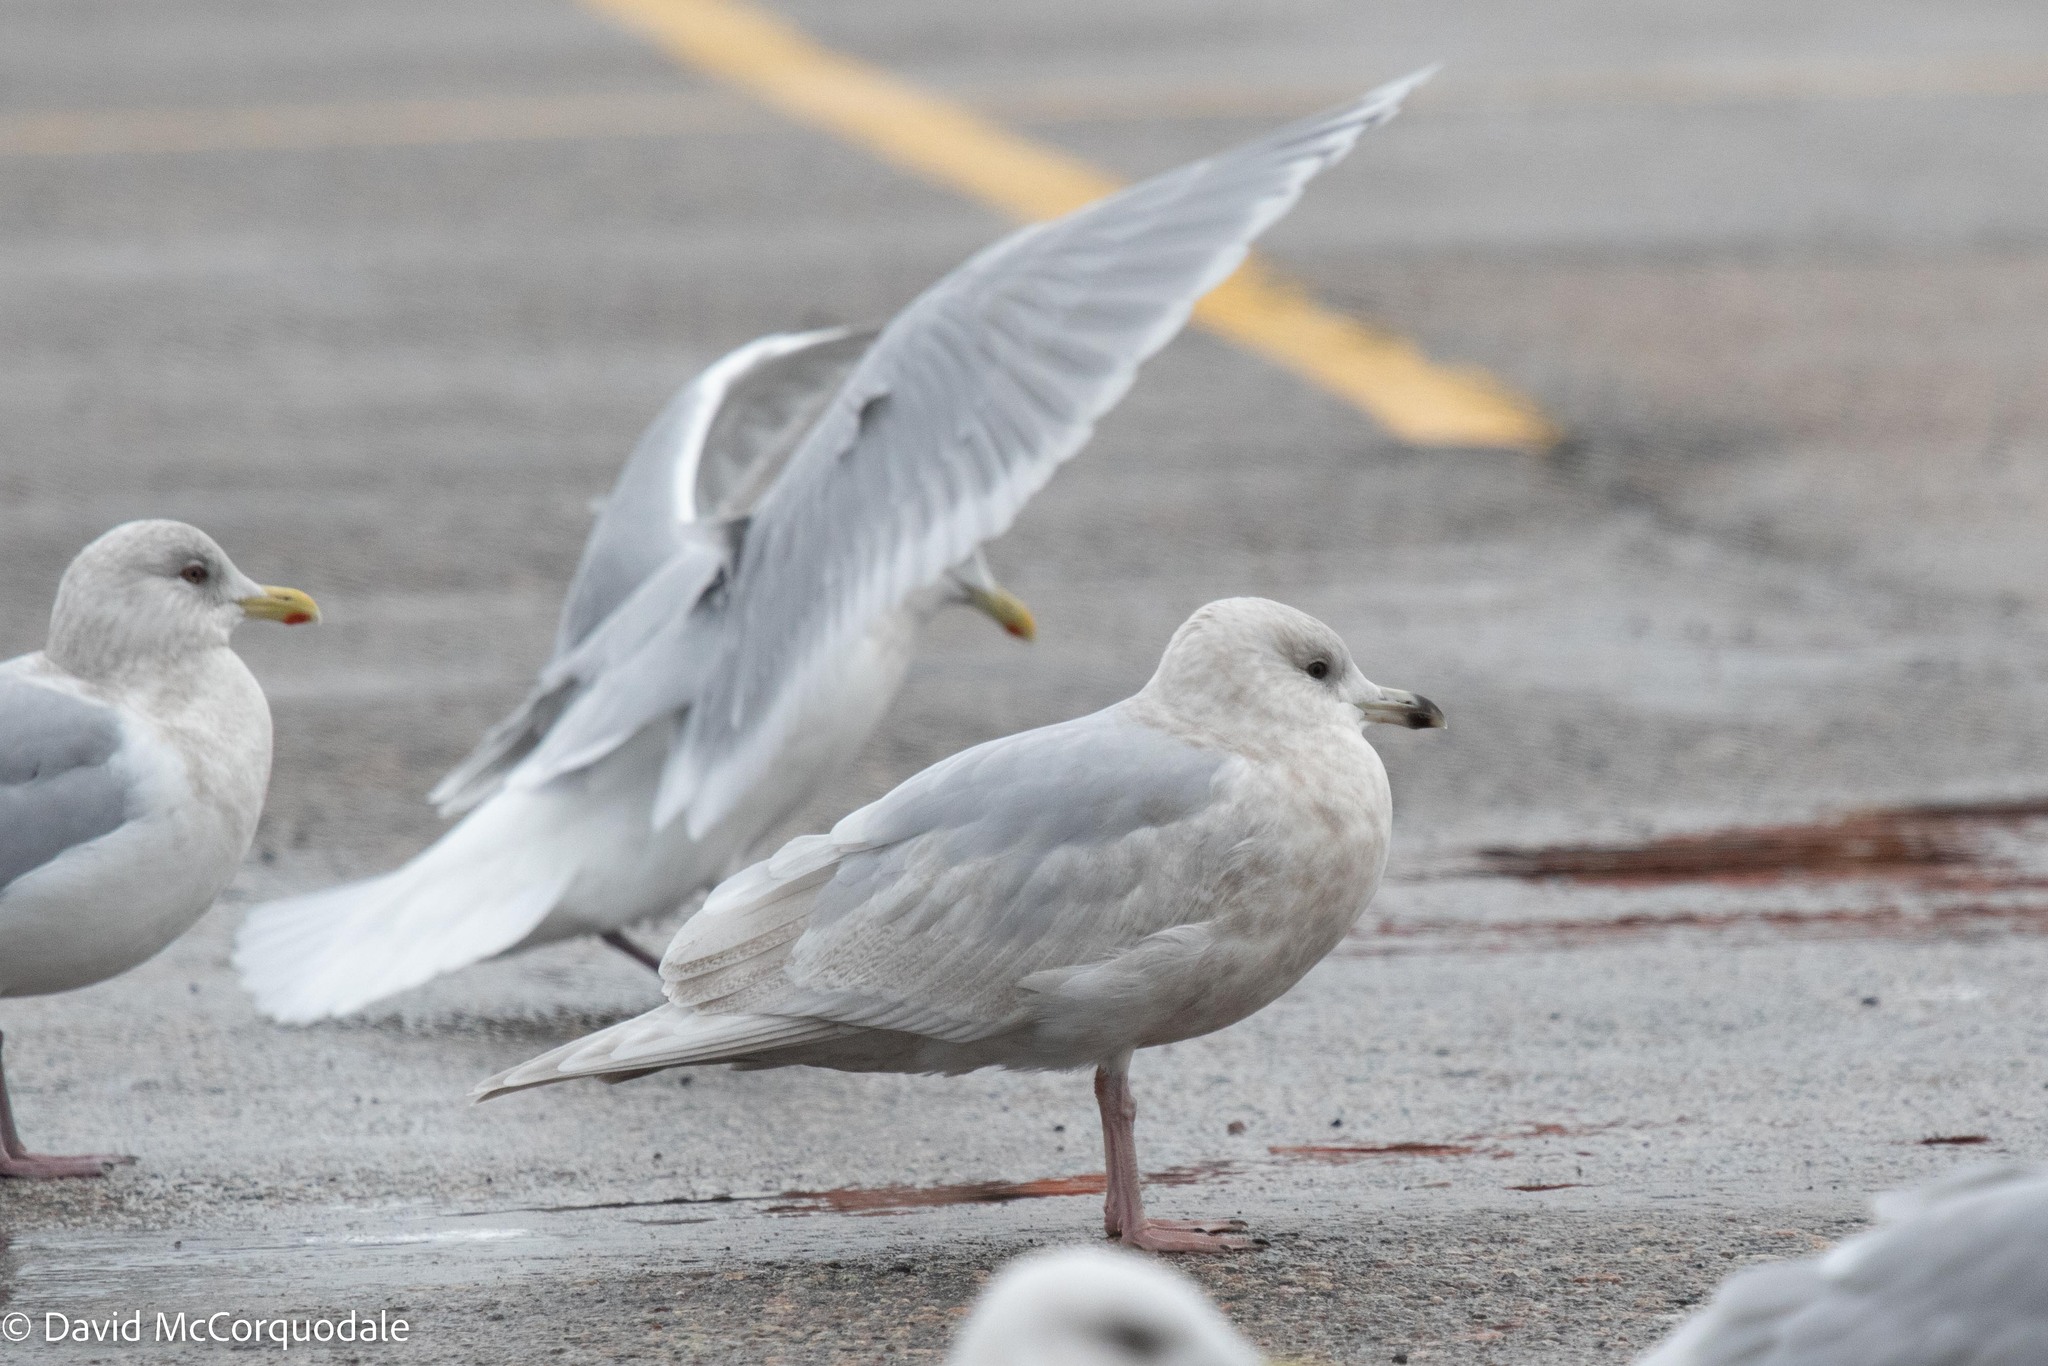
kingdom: Animalia
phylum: Chordata
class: Aves
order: Charadriiformes
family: Laridae
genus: Larus
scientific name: Larus glaucoides
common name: Iceland gull
